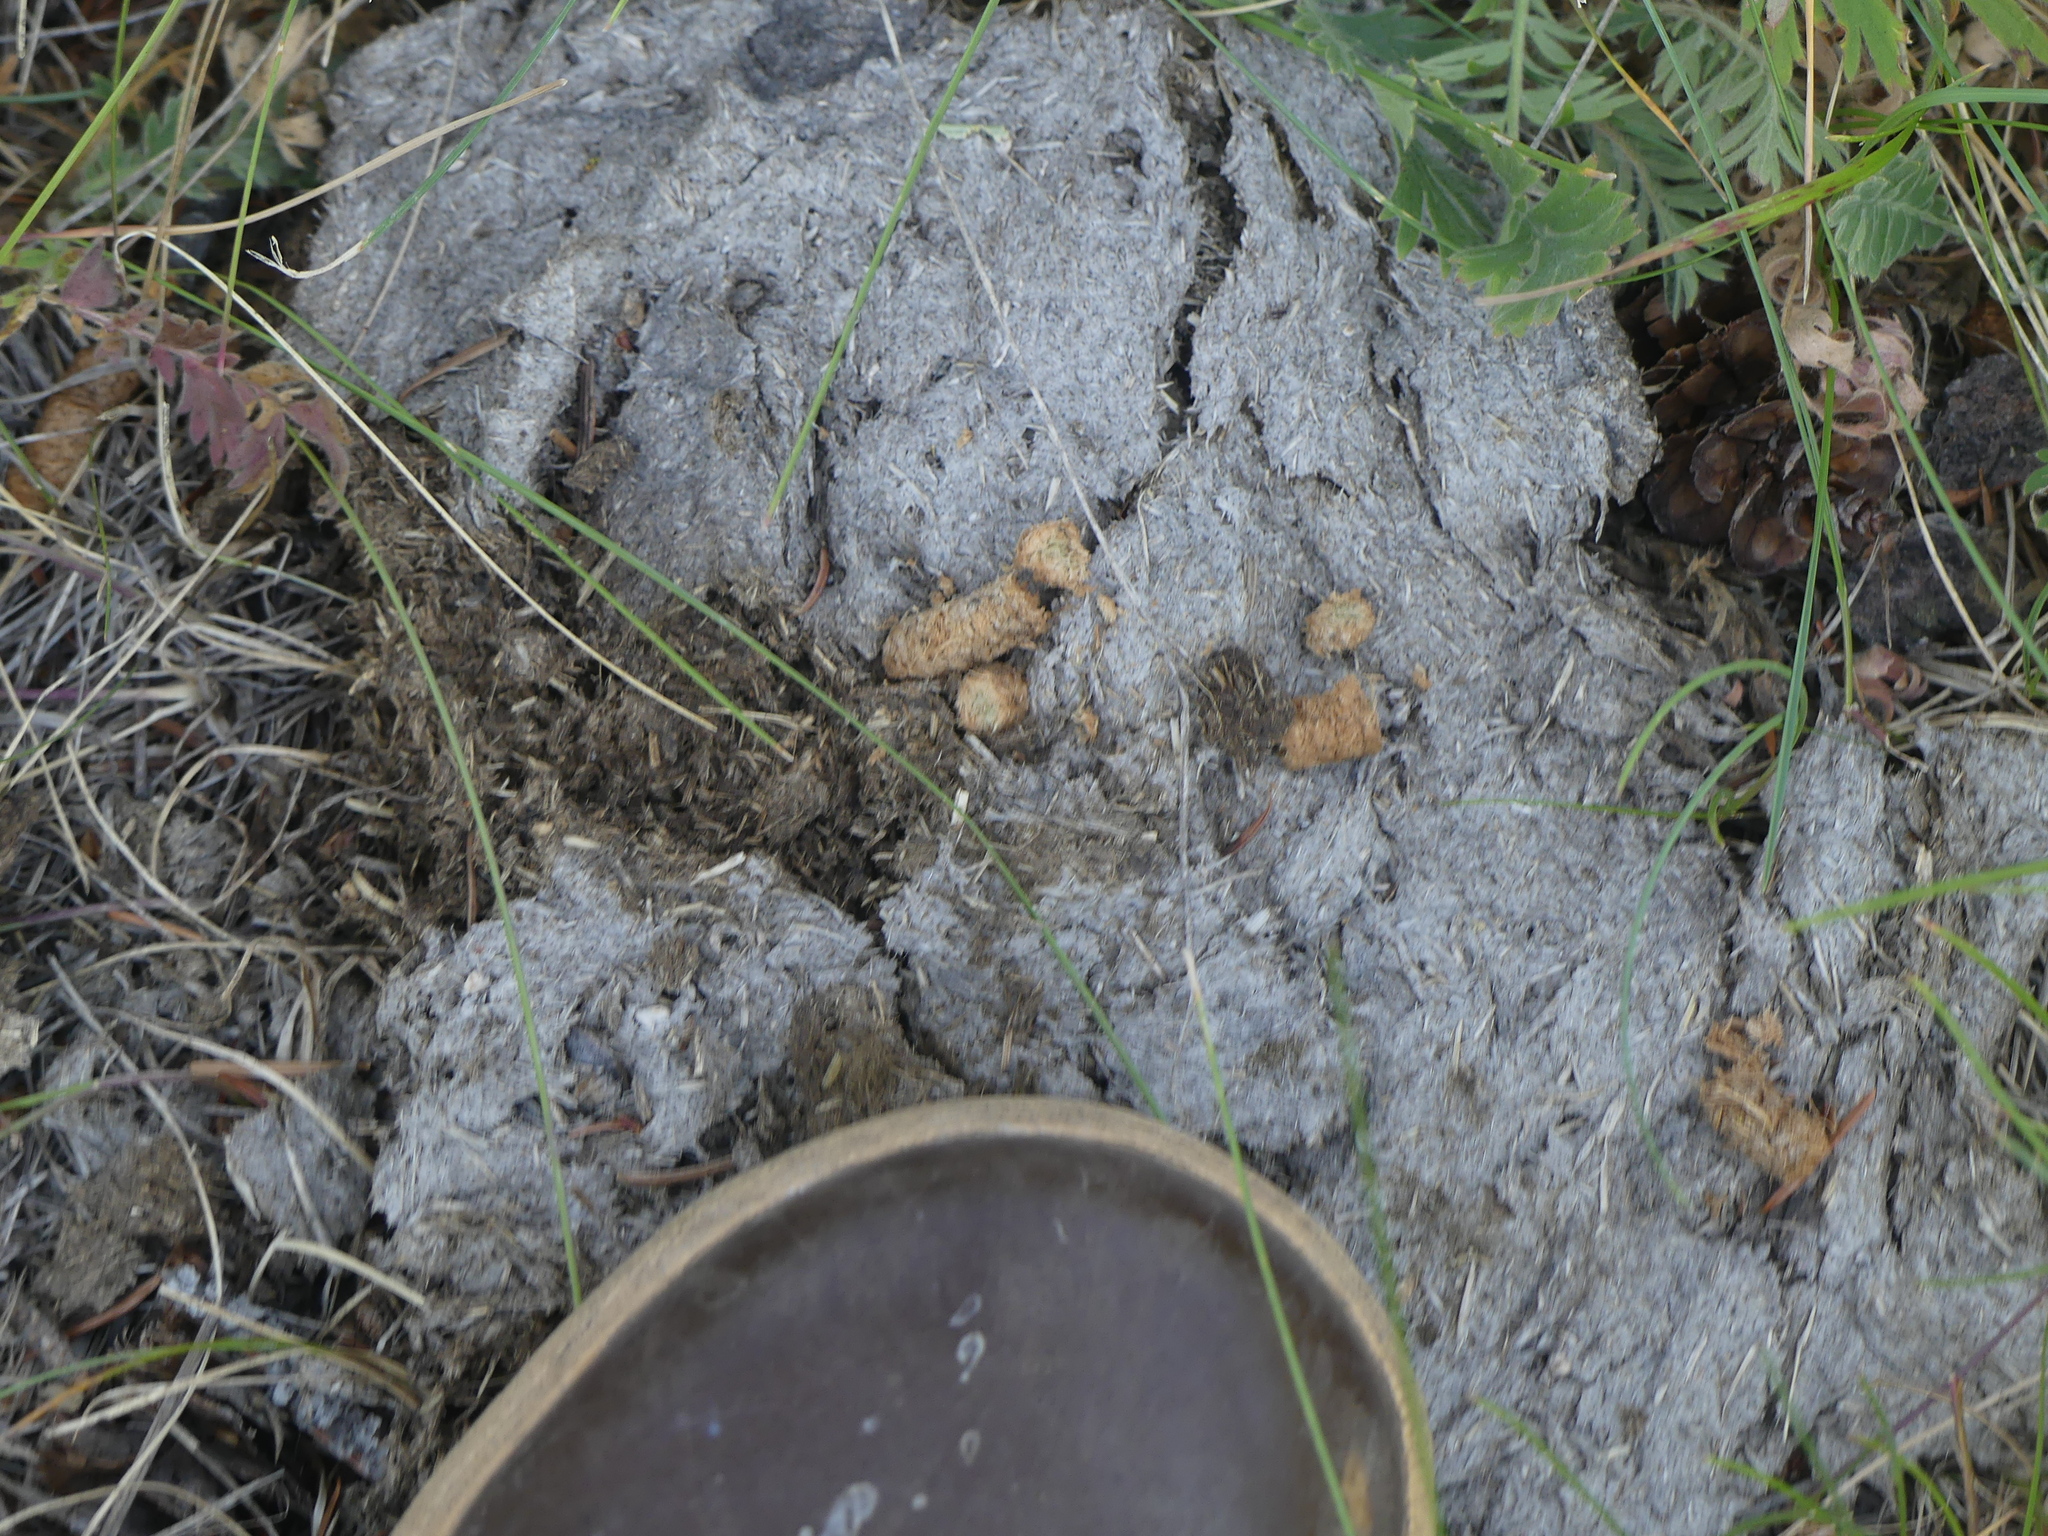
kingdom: Animalia
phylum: Chordata
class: Aves
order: Galliformes
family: Phasianidae
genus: Bonasa
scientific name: Bonasa umbellus
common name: Ruffed grouse
